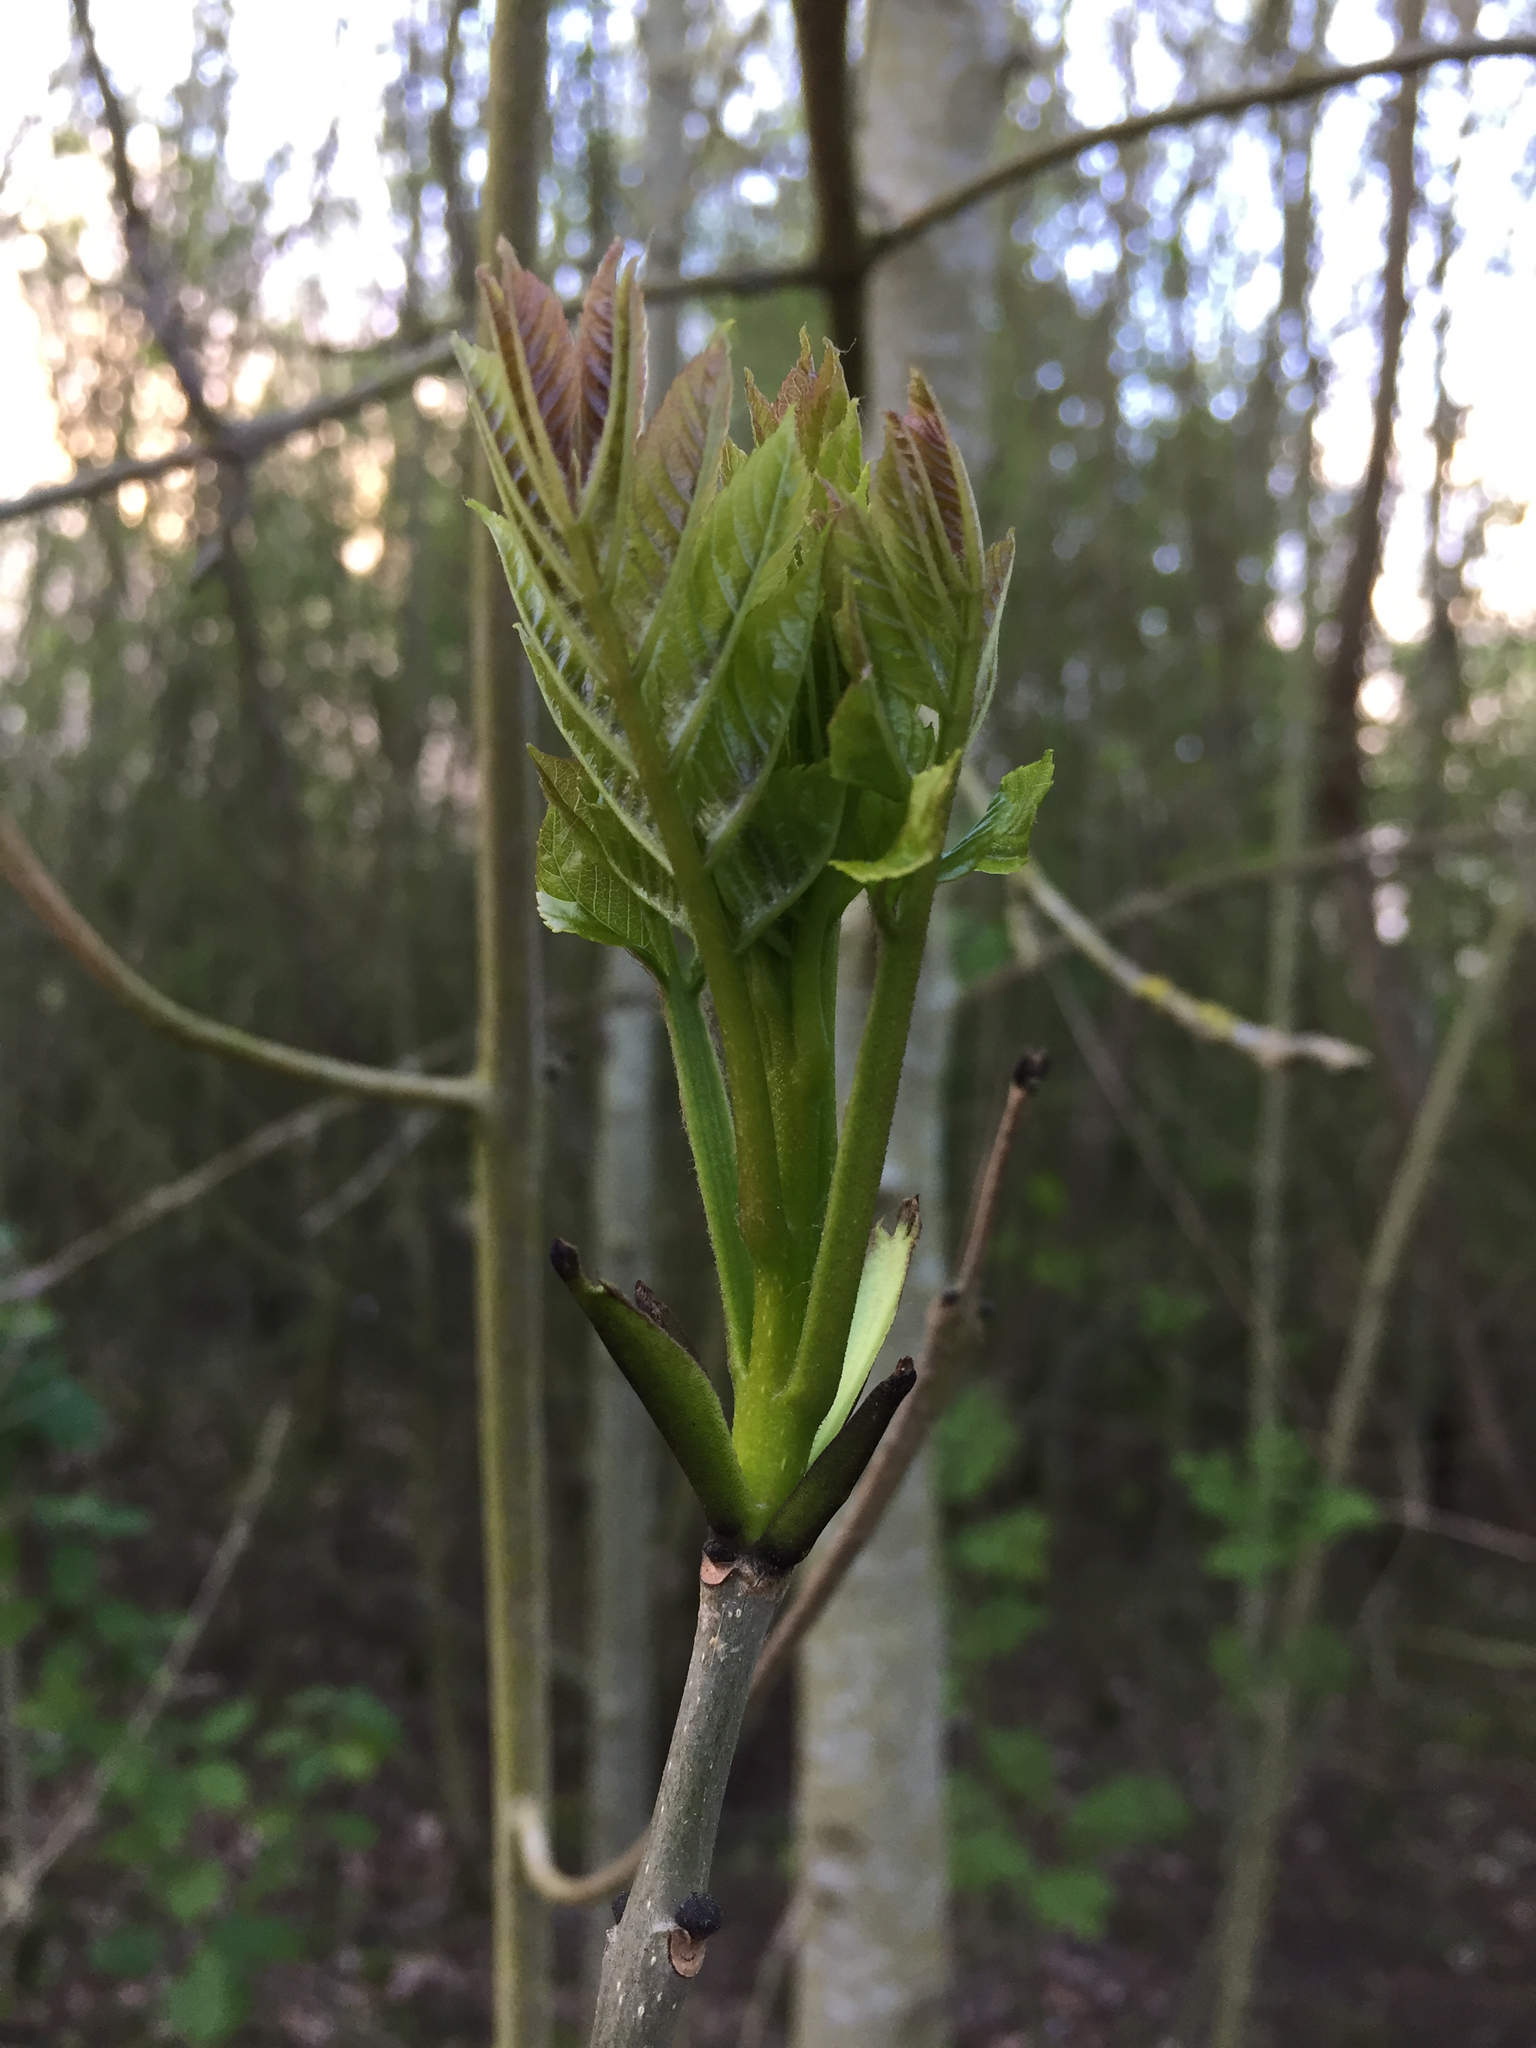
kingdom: Plantae
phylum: Tracheophyta
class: Magnoliopsida
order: Lamiales
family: Oleaceae
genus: Fraxinus
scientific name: Fraxinus excelsior
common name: European ash
